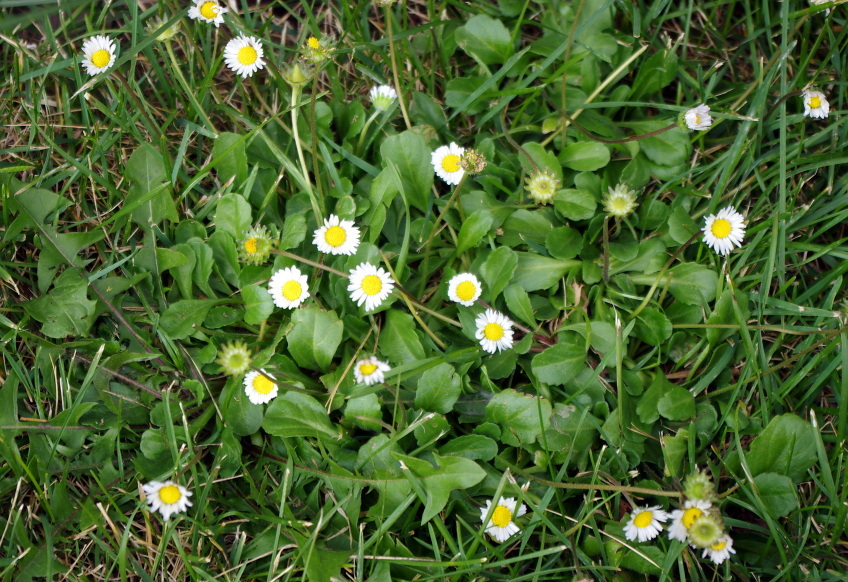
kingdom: Plantae
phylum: Tracheophyta
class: Magnoliopsida
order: Asterales
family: Asteraceae
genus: Bellis
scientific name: Bellis perennis
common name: Lawndaisy
